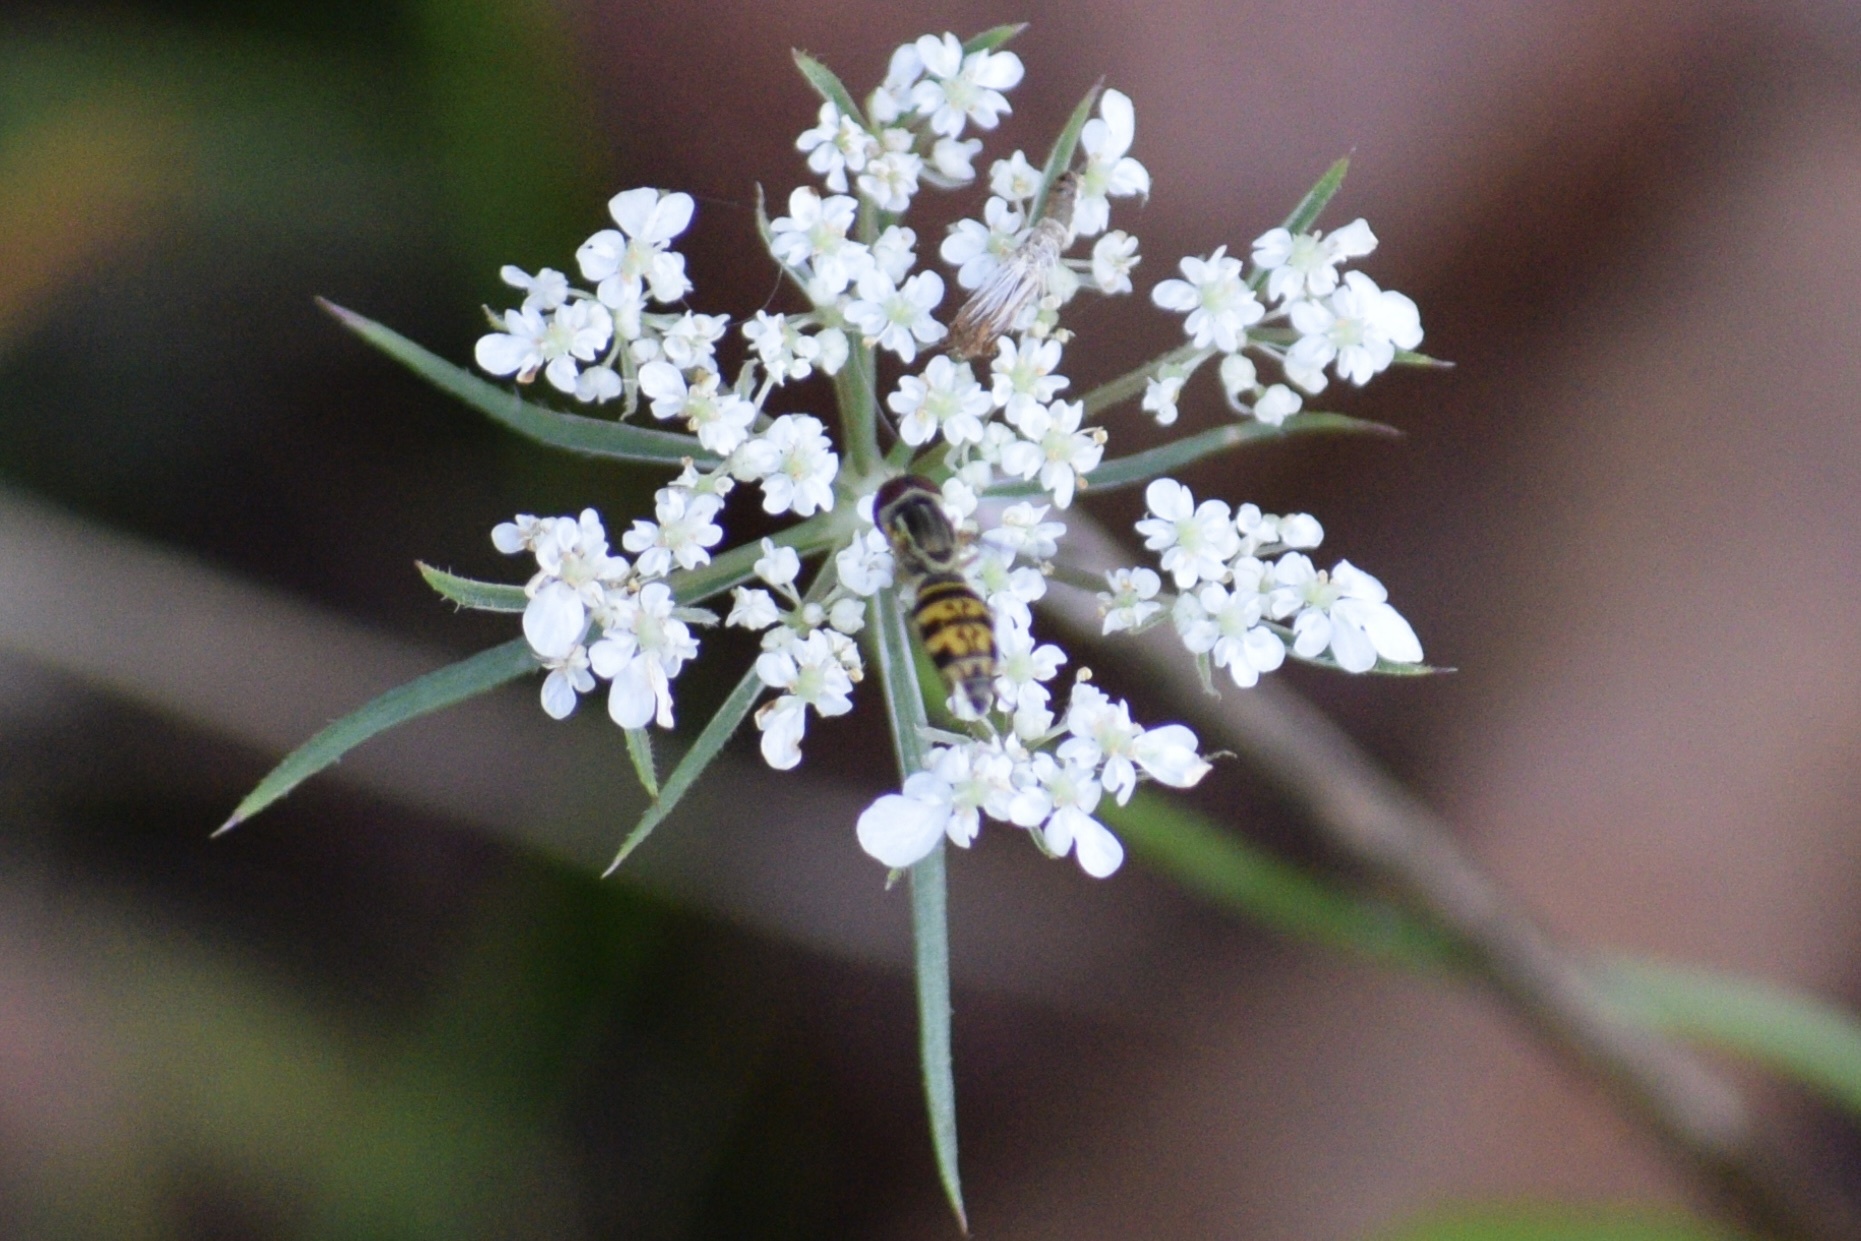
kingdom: Animalia
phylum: Arthropoda
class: Insecta
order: Diptera
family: Syrphidae
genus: Toxomerus
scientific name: Toxomerus geminatus
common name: Eastern calligrapher
